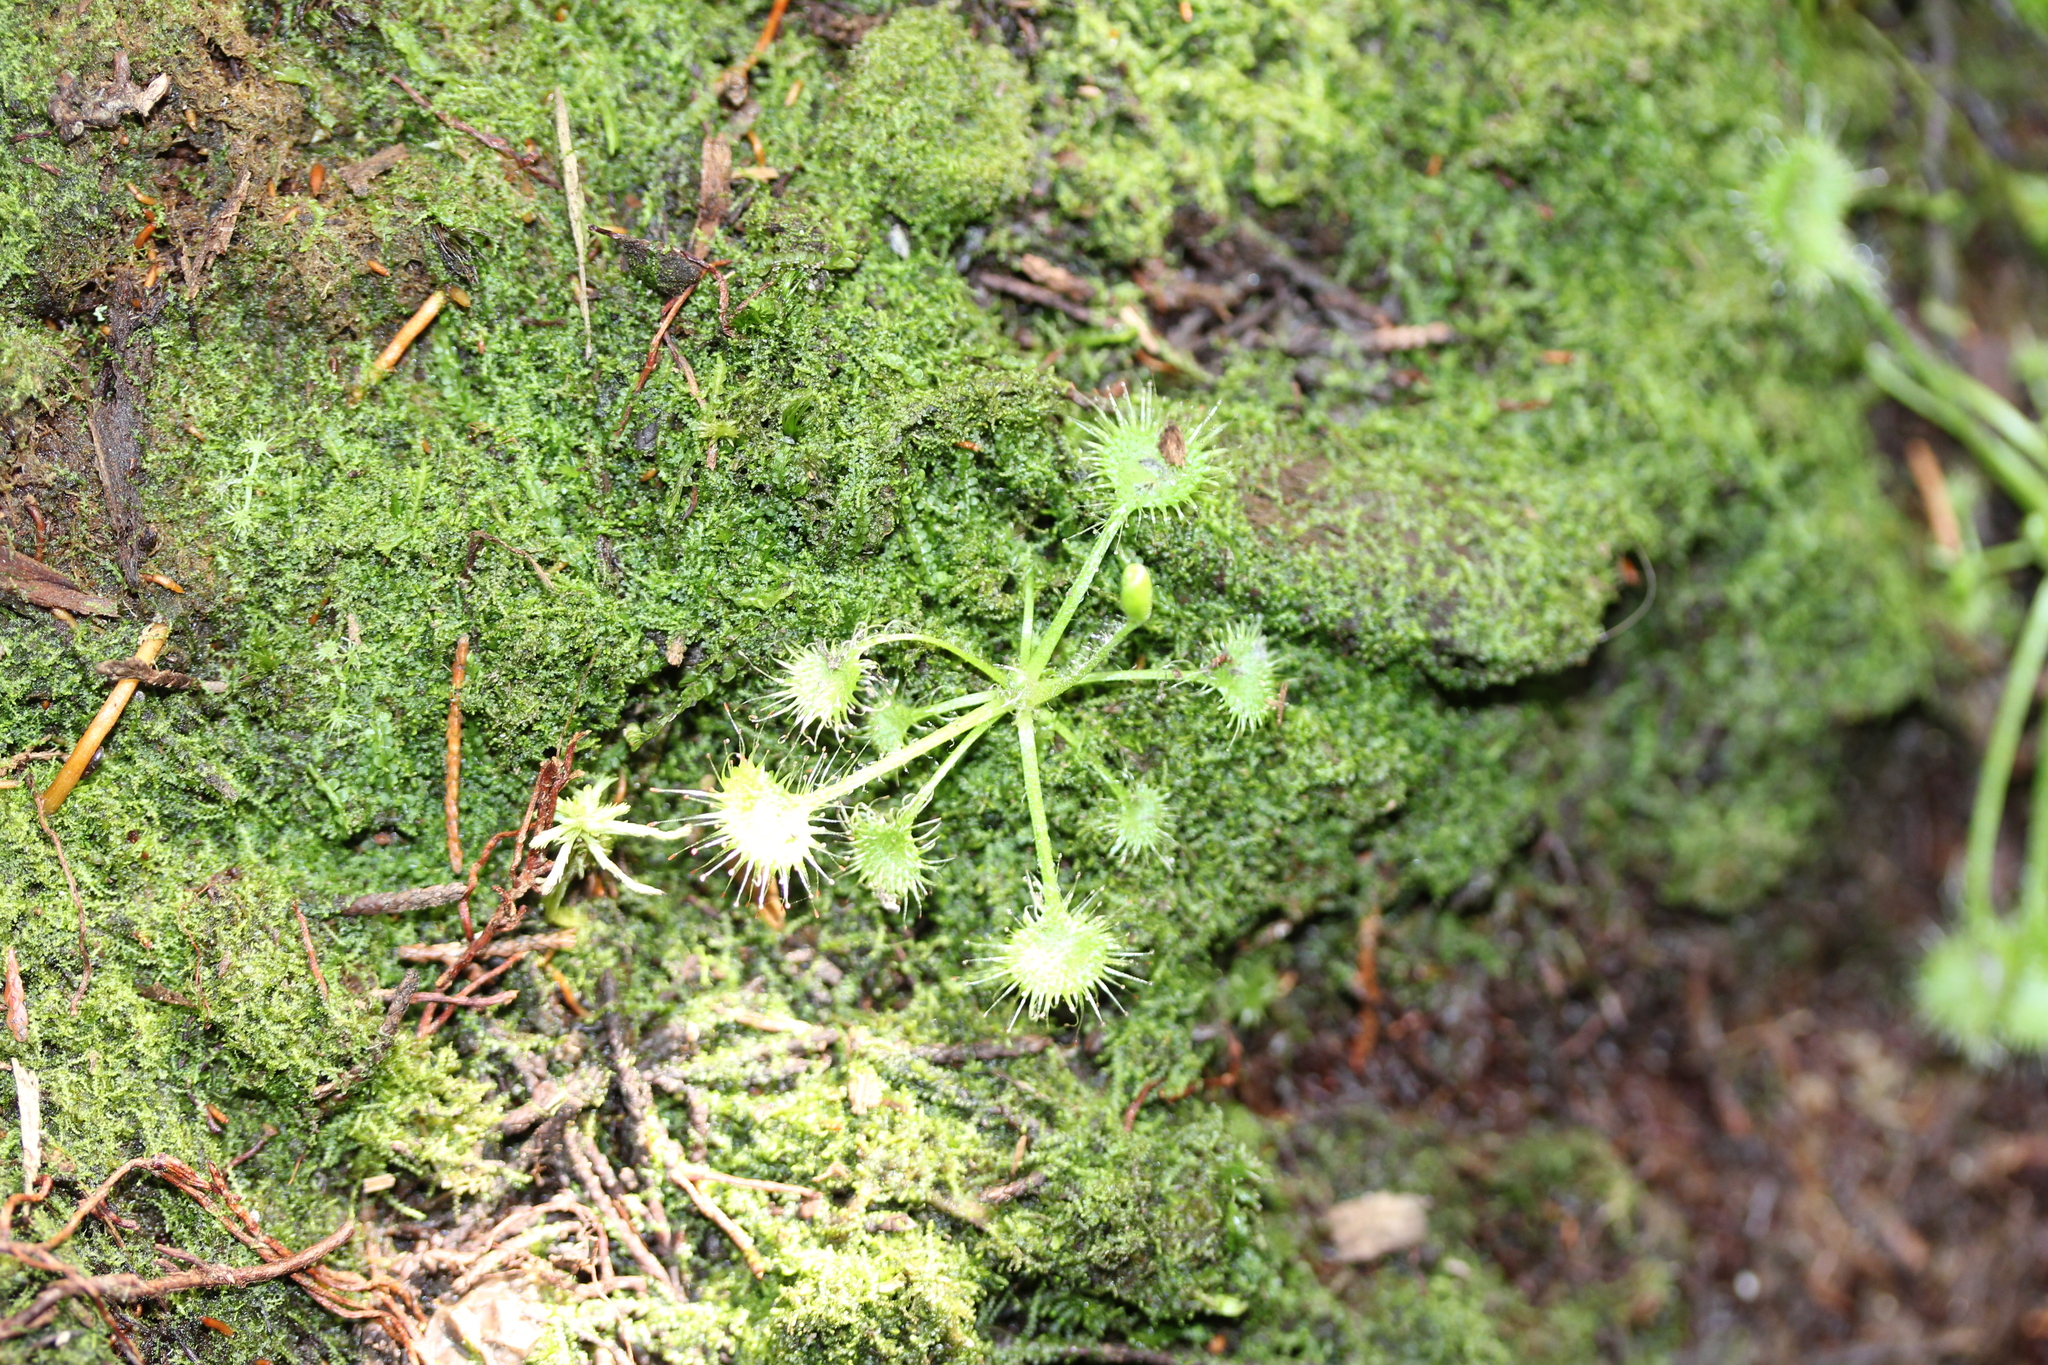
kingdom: Plantae
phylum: Tracheophyta
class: Magnoliopsida
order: Caryophyllales
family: Droseraceae
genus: Drosera
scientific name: Drosera rotundifolia
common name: Round-leaved sundew
